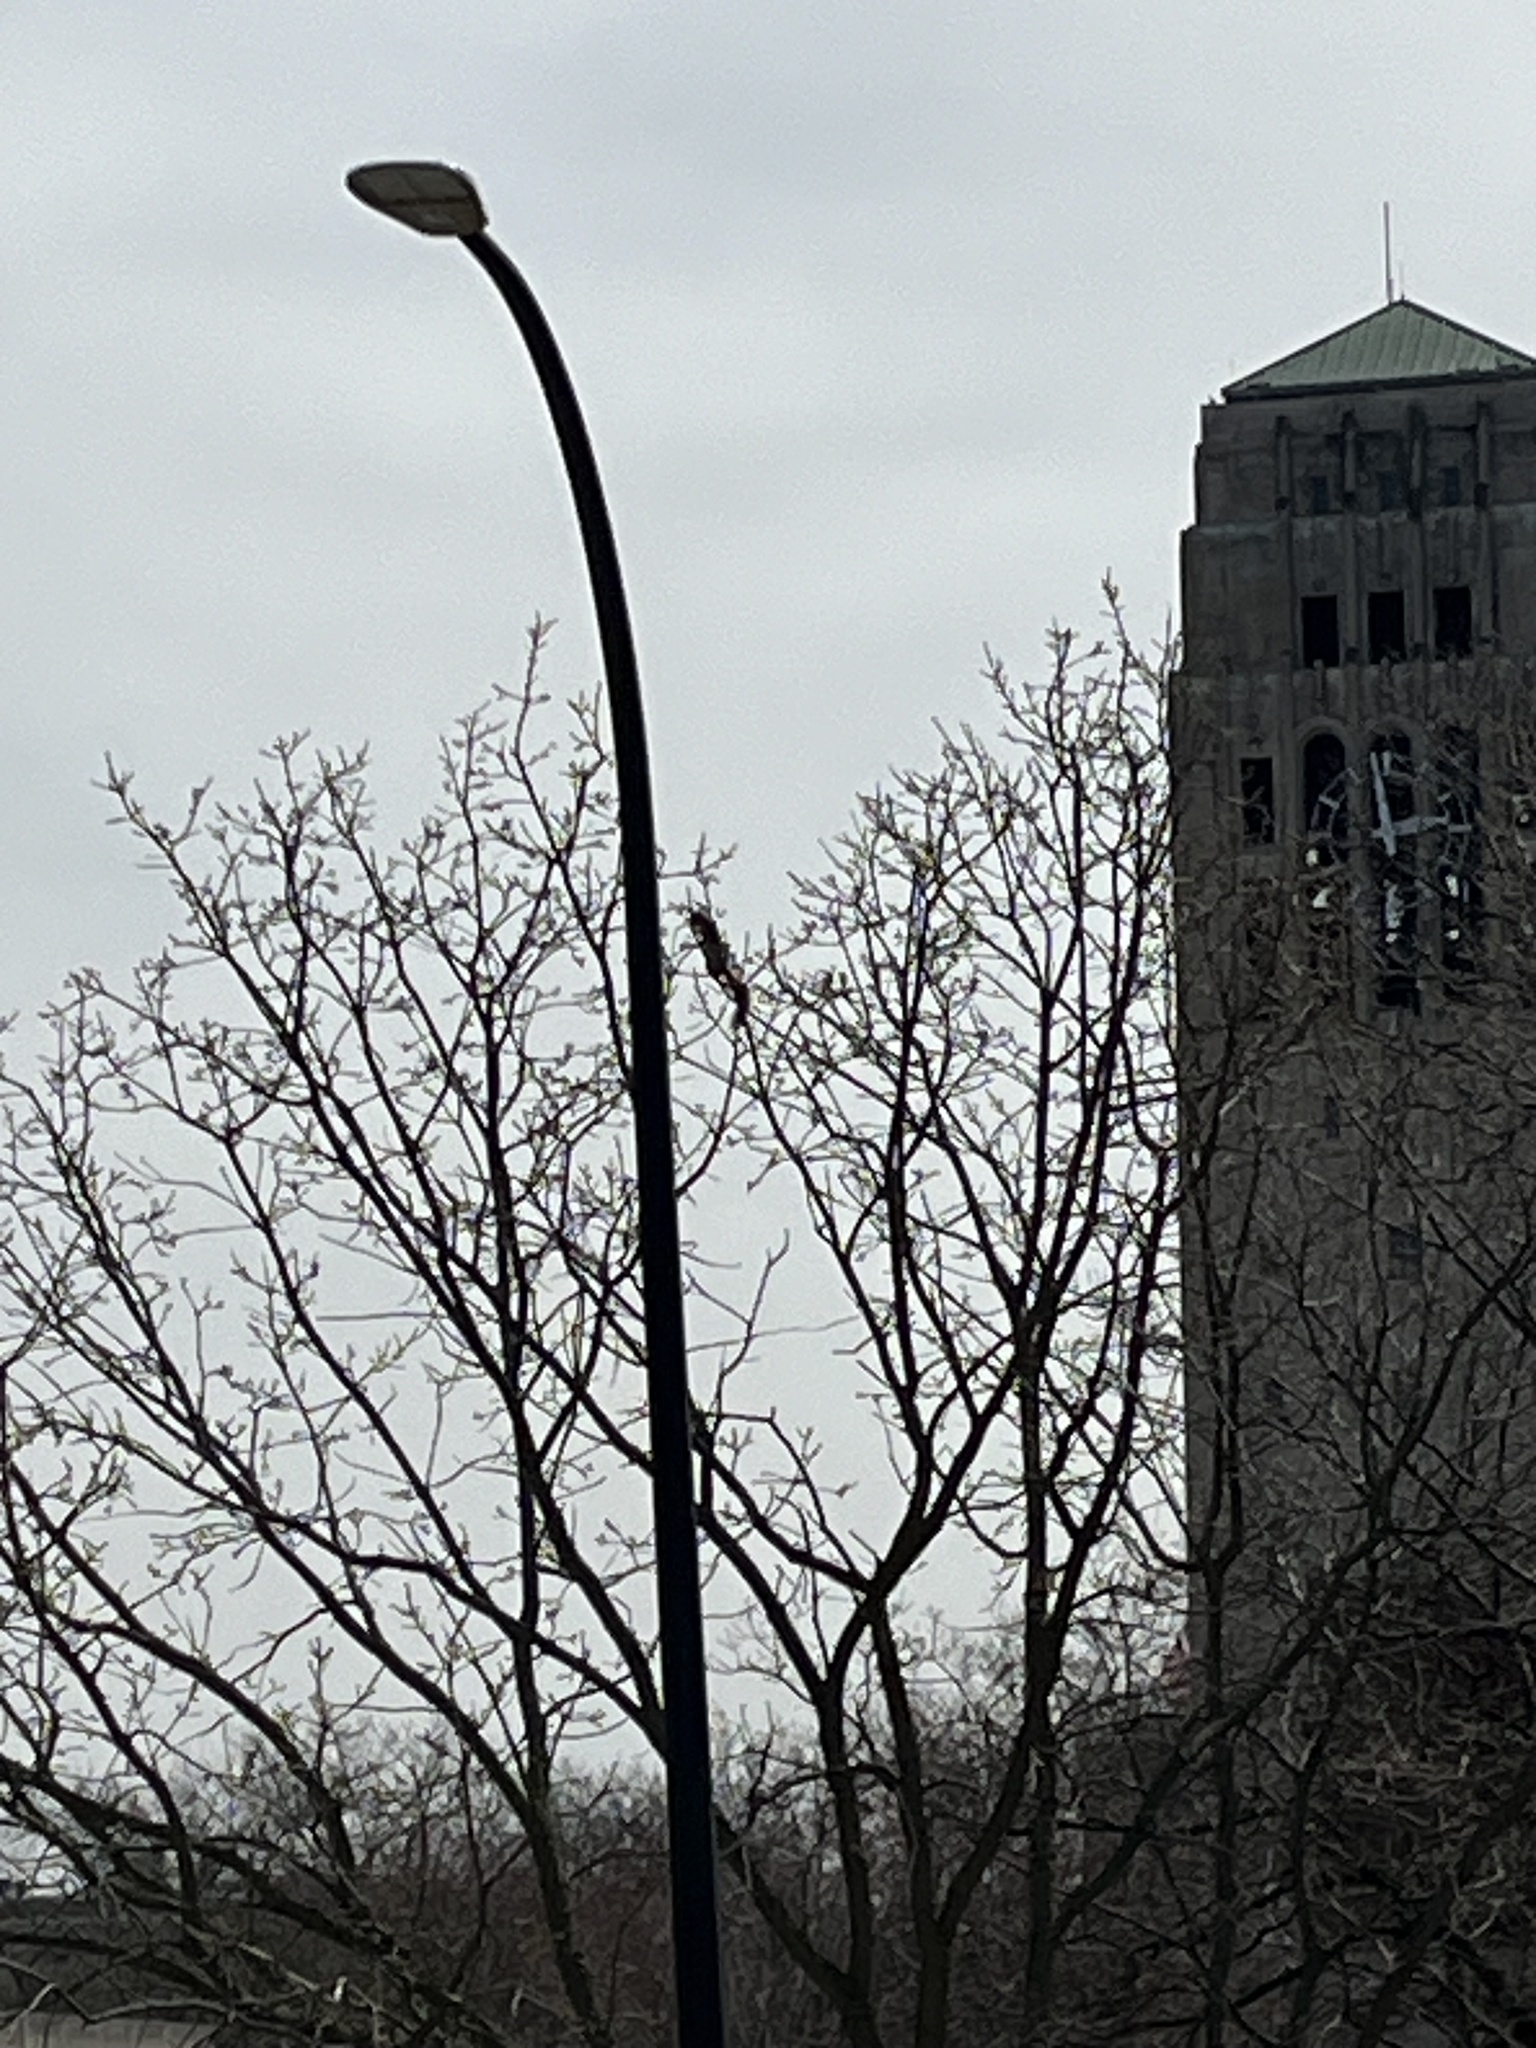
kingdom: Animalia
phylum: Chordata
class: Mammalia
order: Rodentia
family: Sciuridae
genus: Sciurus
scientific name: Sciurus niger
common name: Fox squirrel
